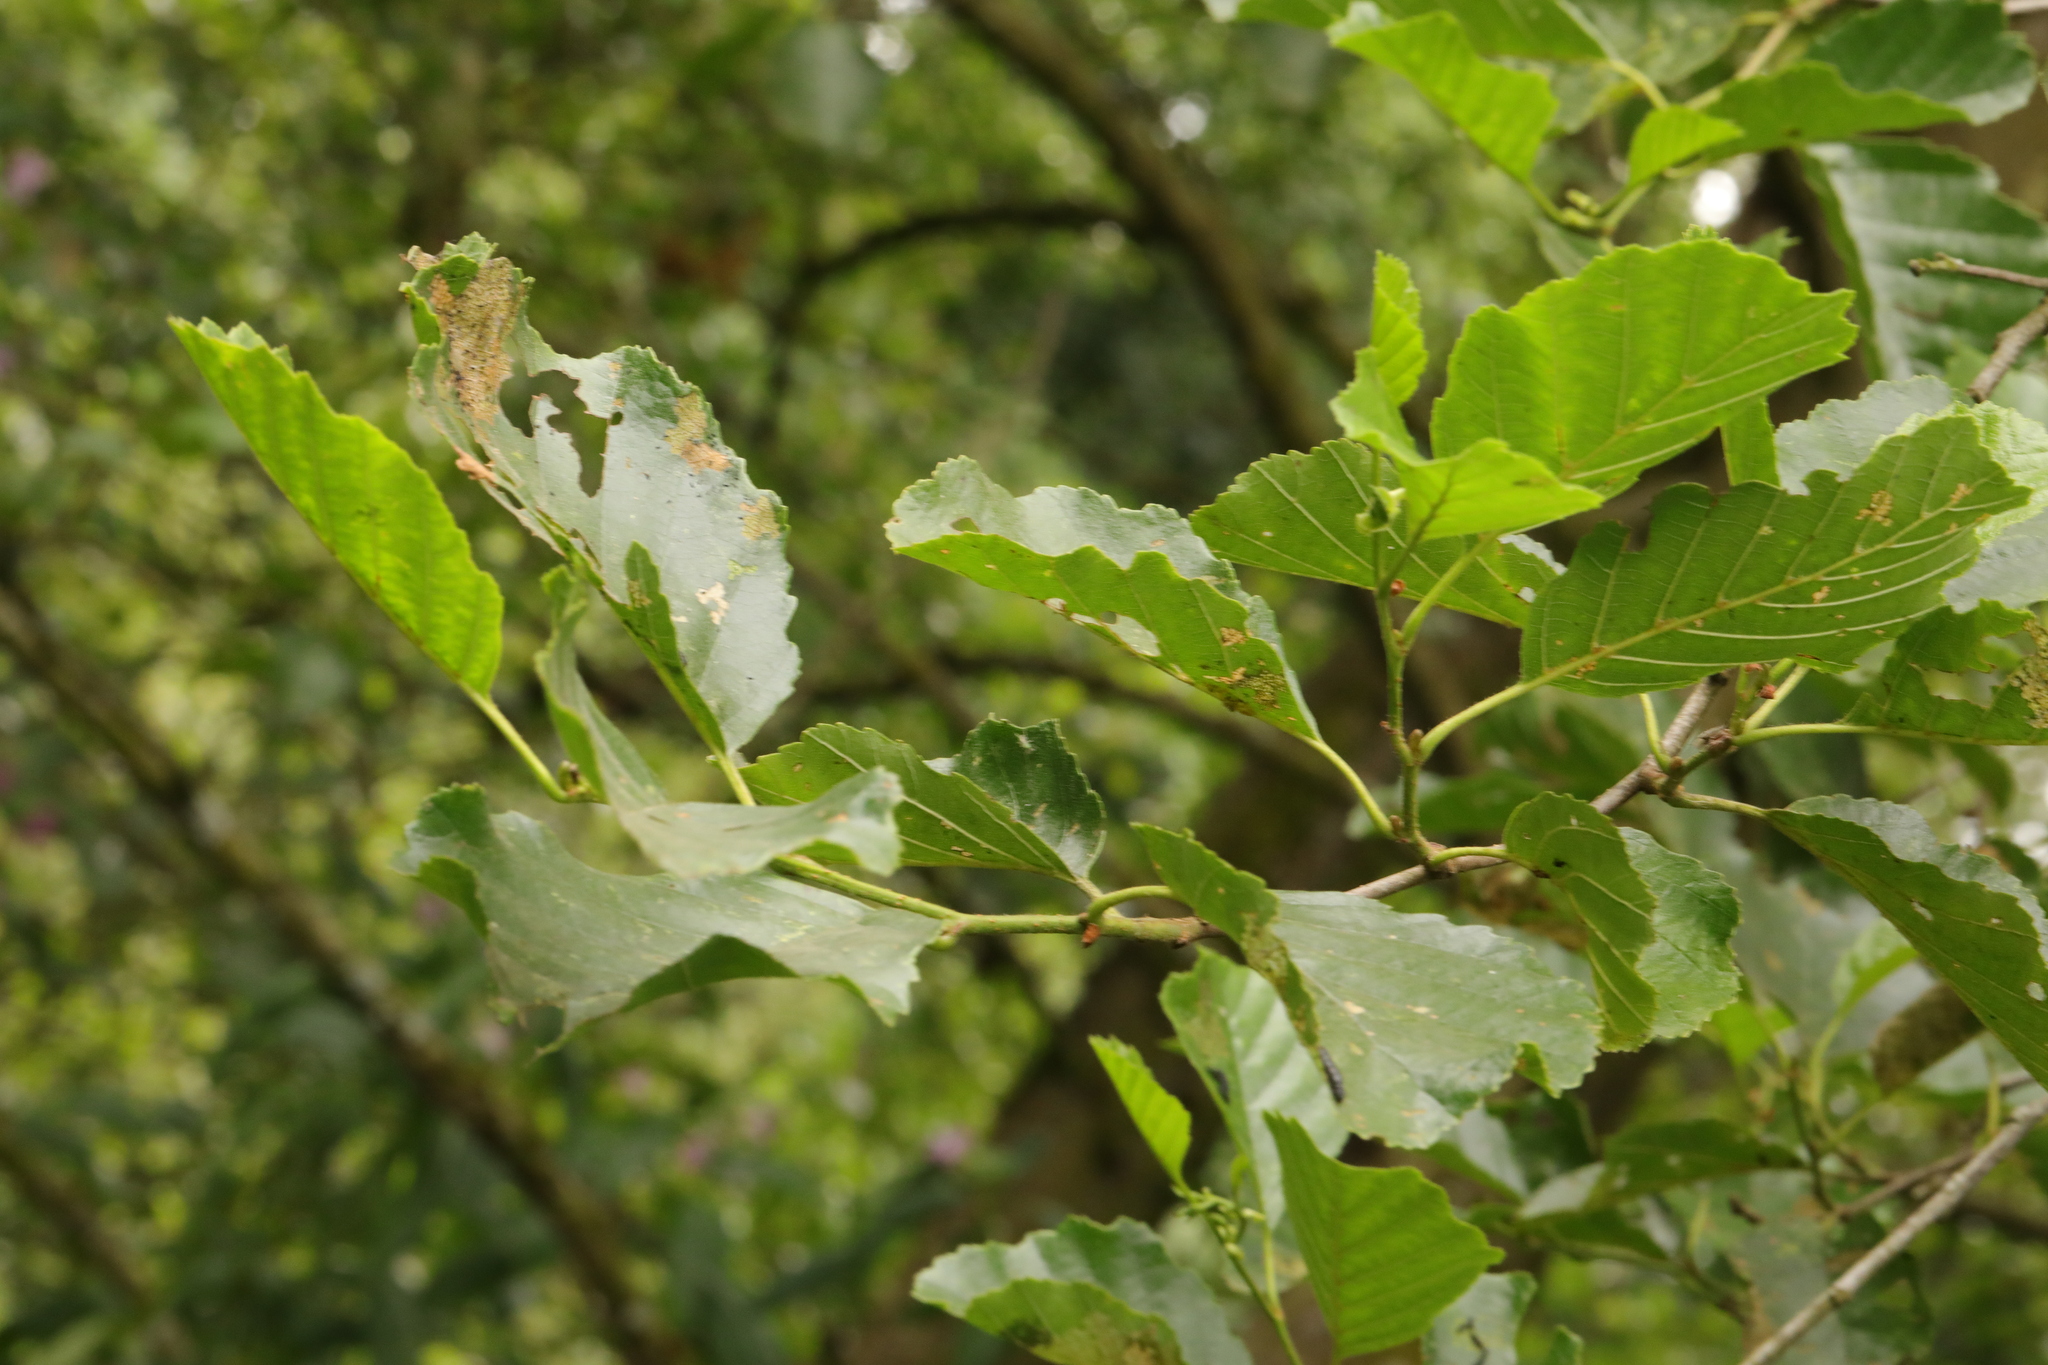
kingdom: Plantae
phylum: Tracheophyta
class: Magnoliopsida
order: Fagales
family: Betulaceae
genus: Alnus
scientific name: Alnus glutinosa
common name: Black alder
